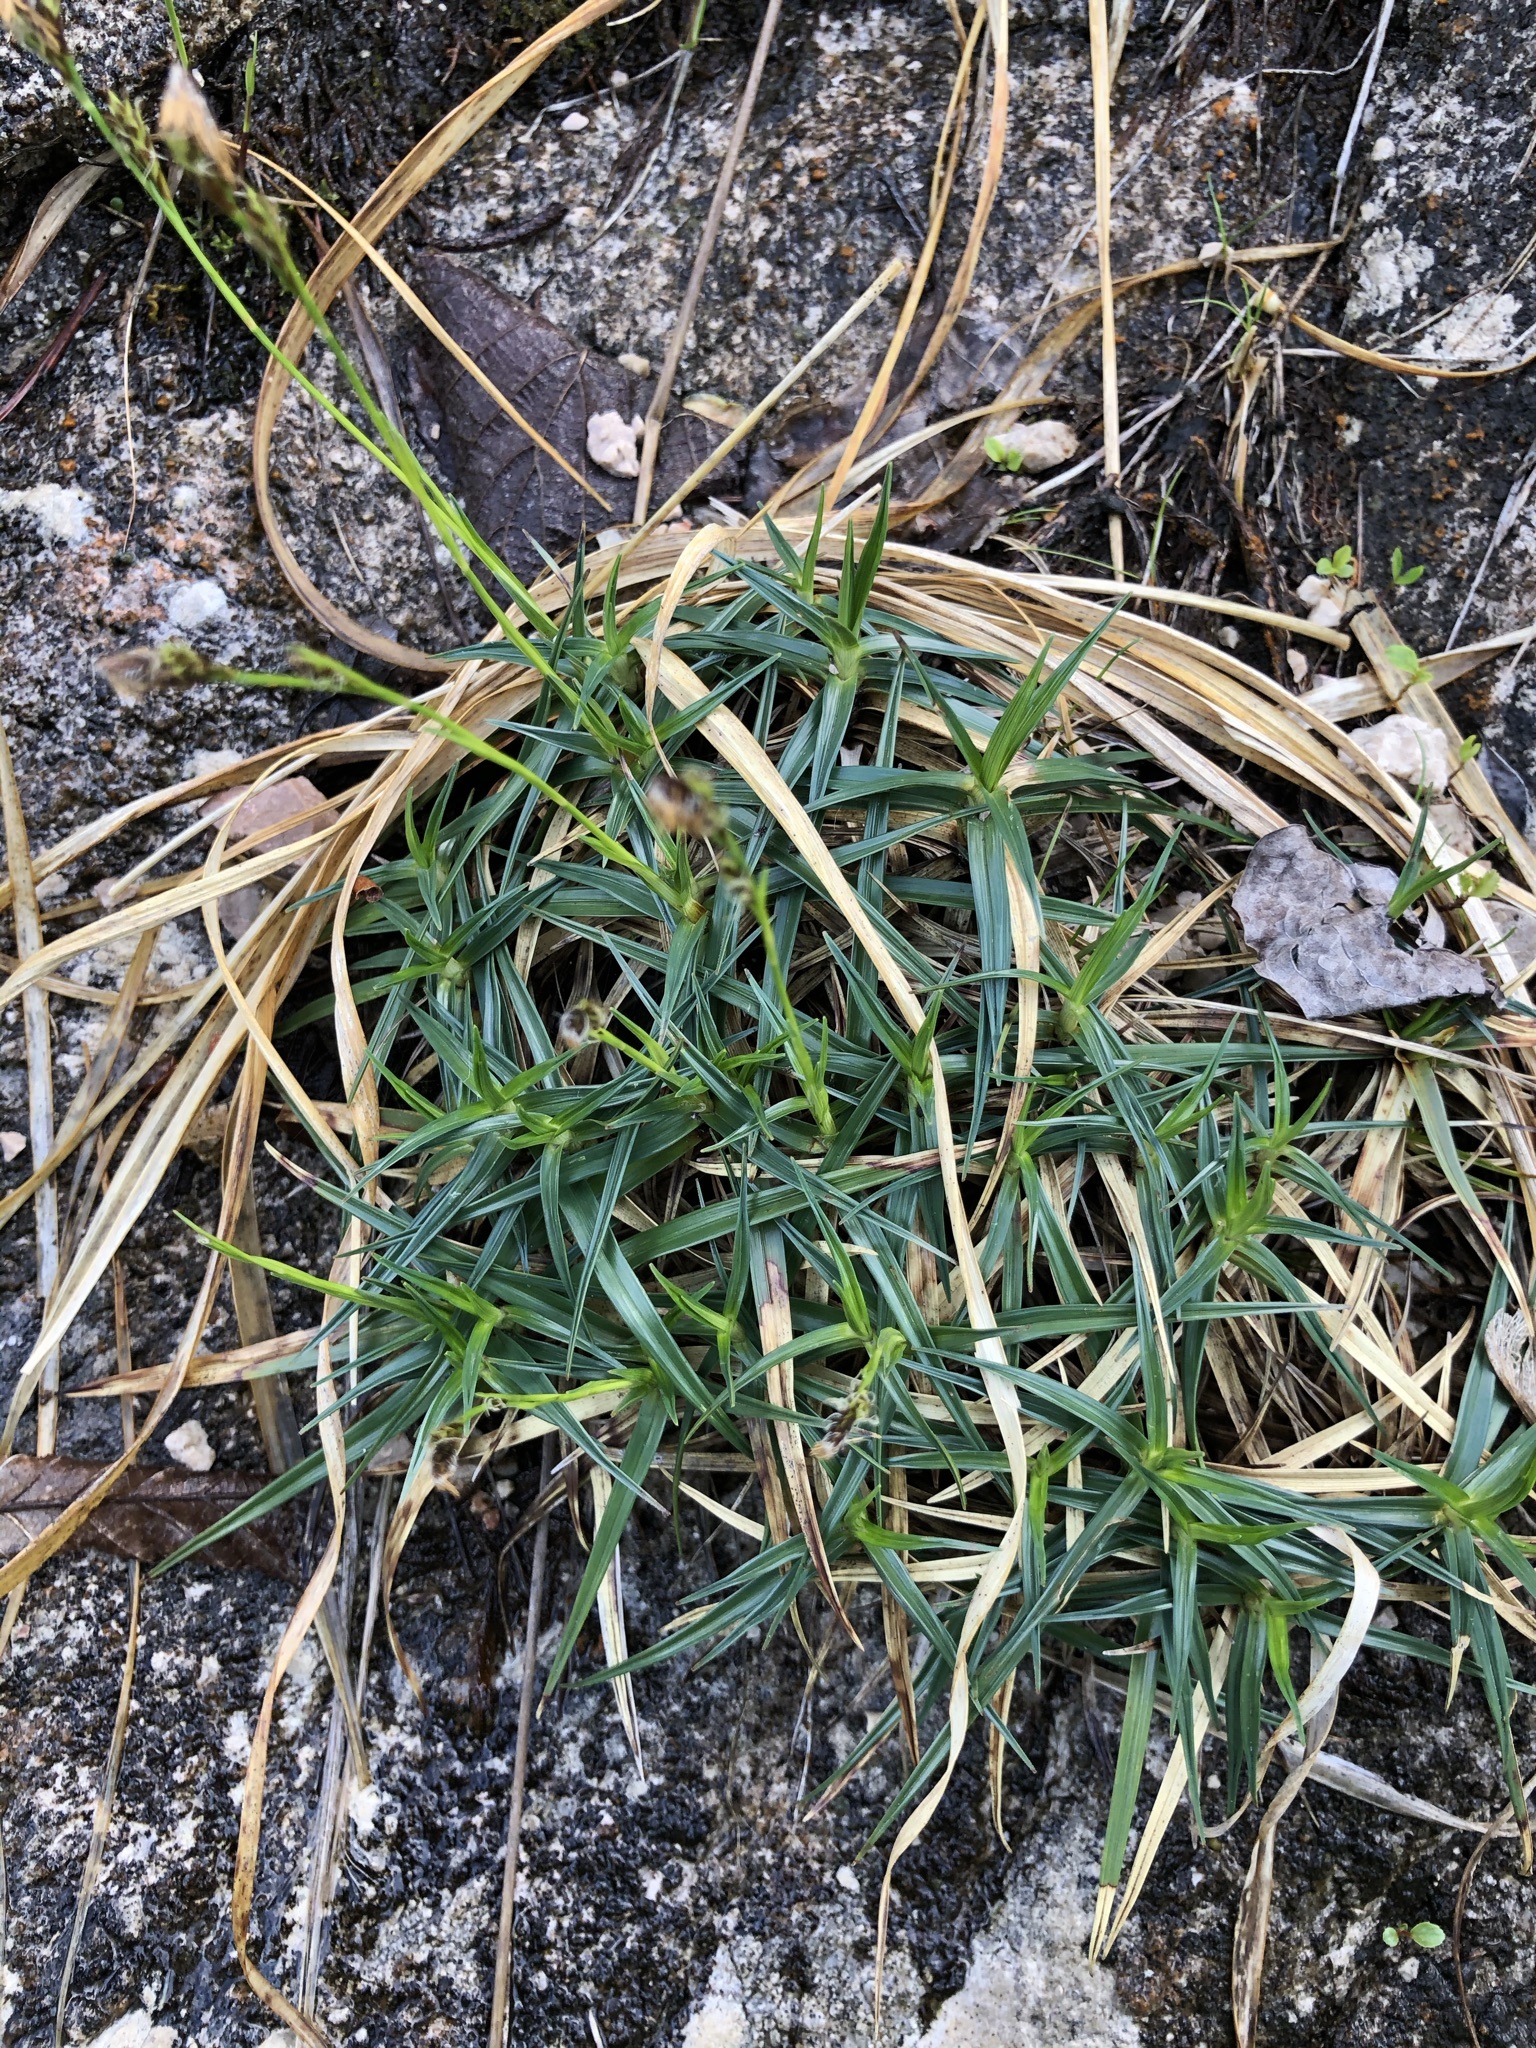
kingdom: Plantae
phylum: Tracheophyta
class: Liliopsida
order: Poales
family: Cyperaceae
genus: Carex
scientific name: Carex firma
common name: Dwarf pillow sedge
